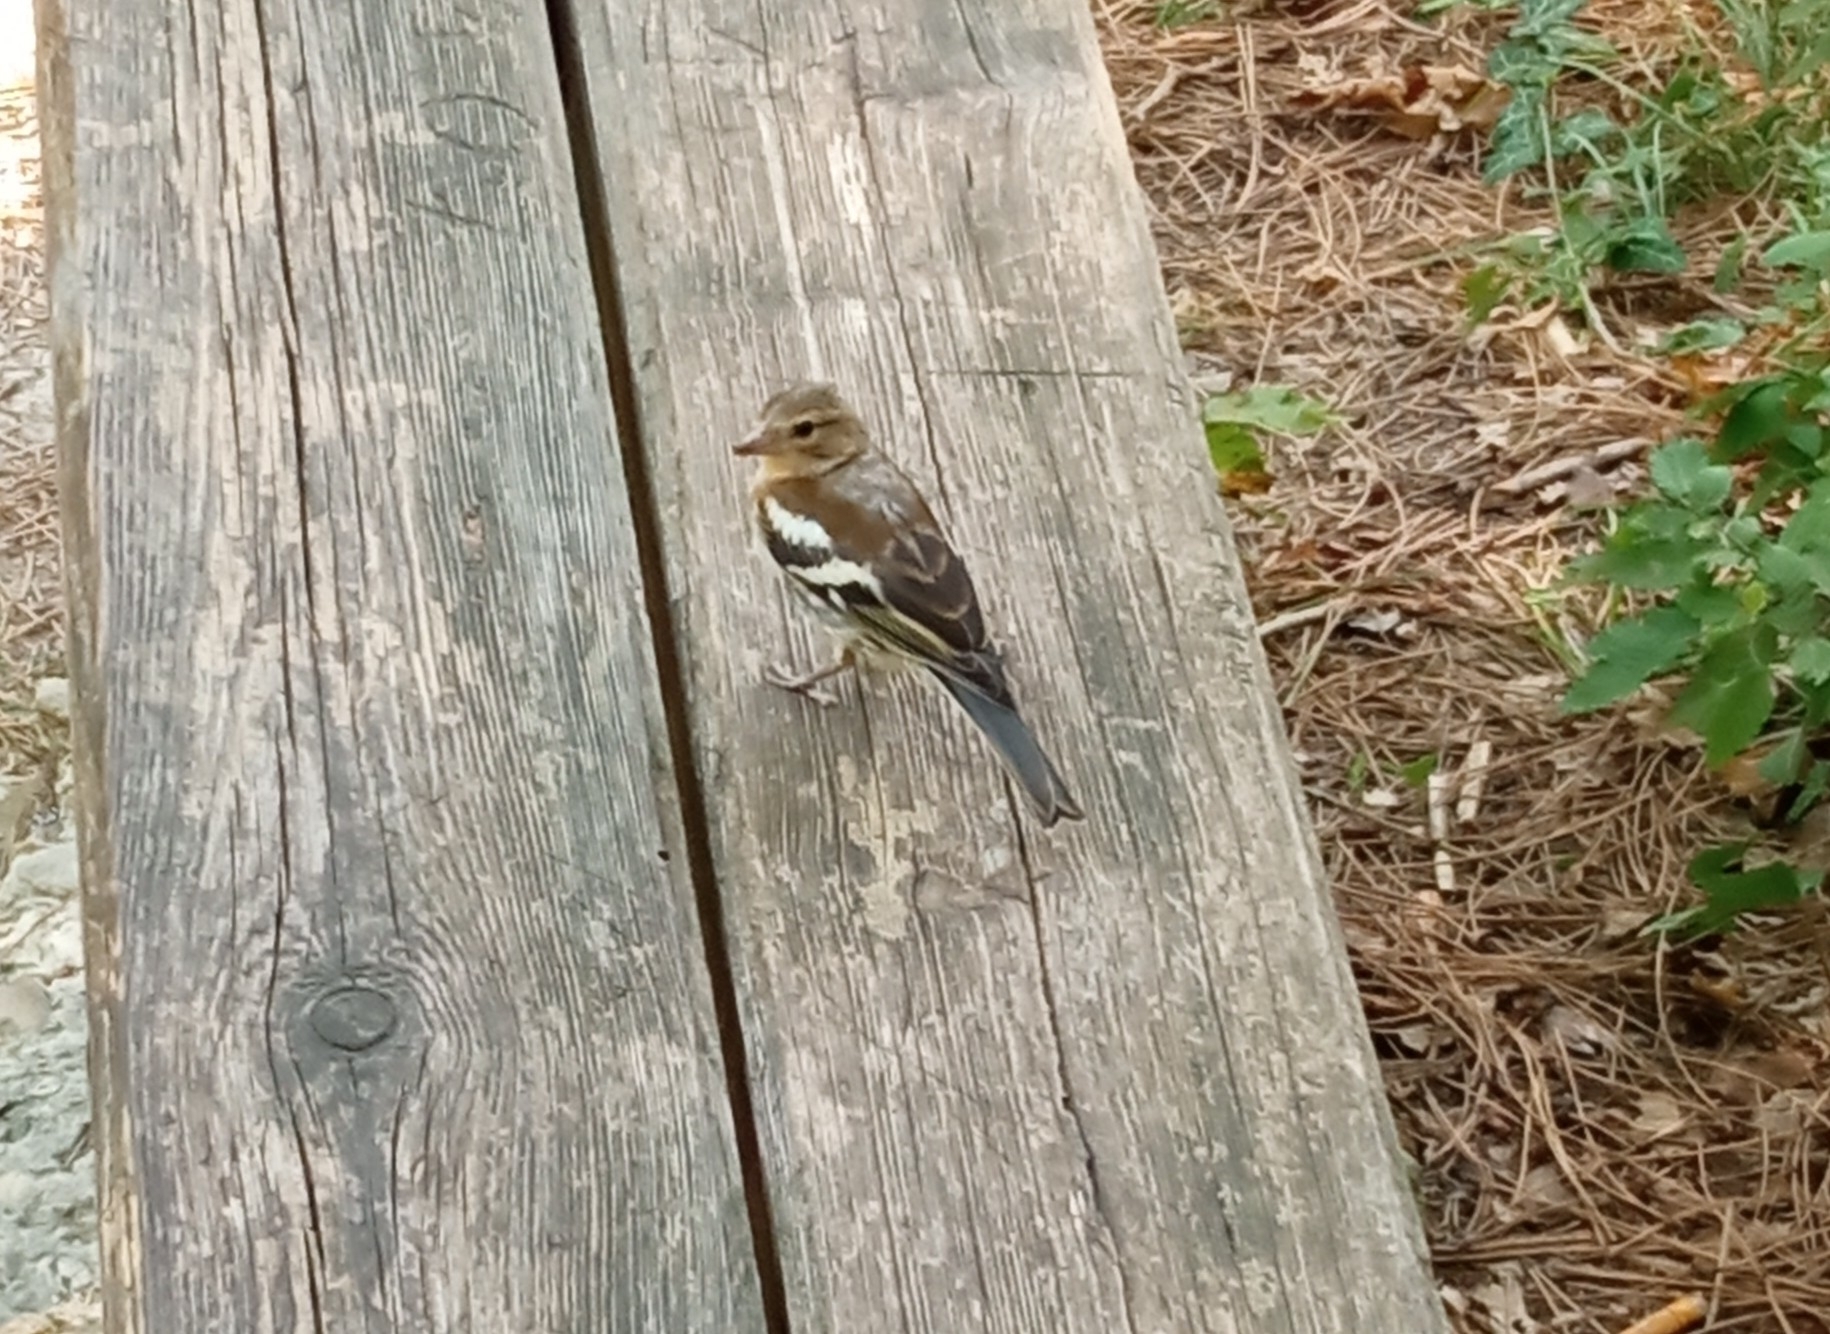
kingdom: Animalia
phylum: Chordata
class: Aves
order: Passeriformes
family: Fringillidae
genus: Fringilla
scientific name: Fringilla coelebs
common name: Common chaffinch
